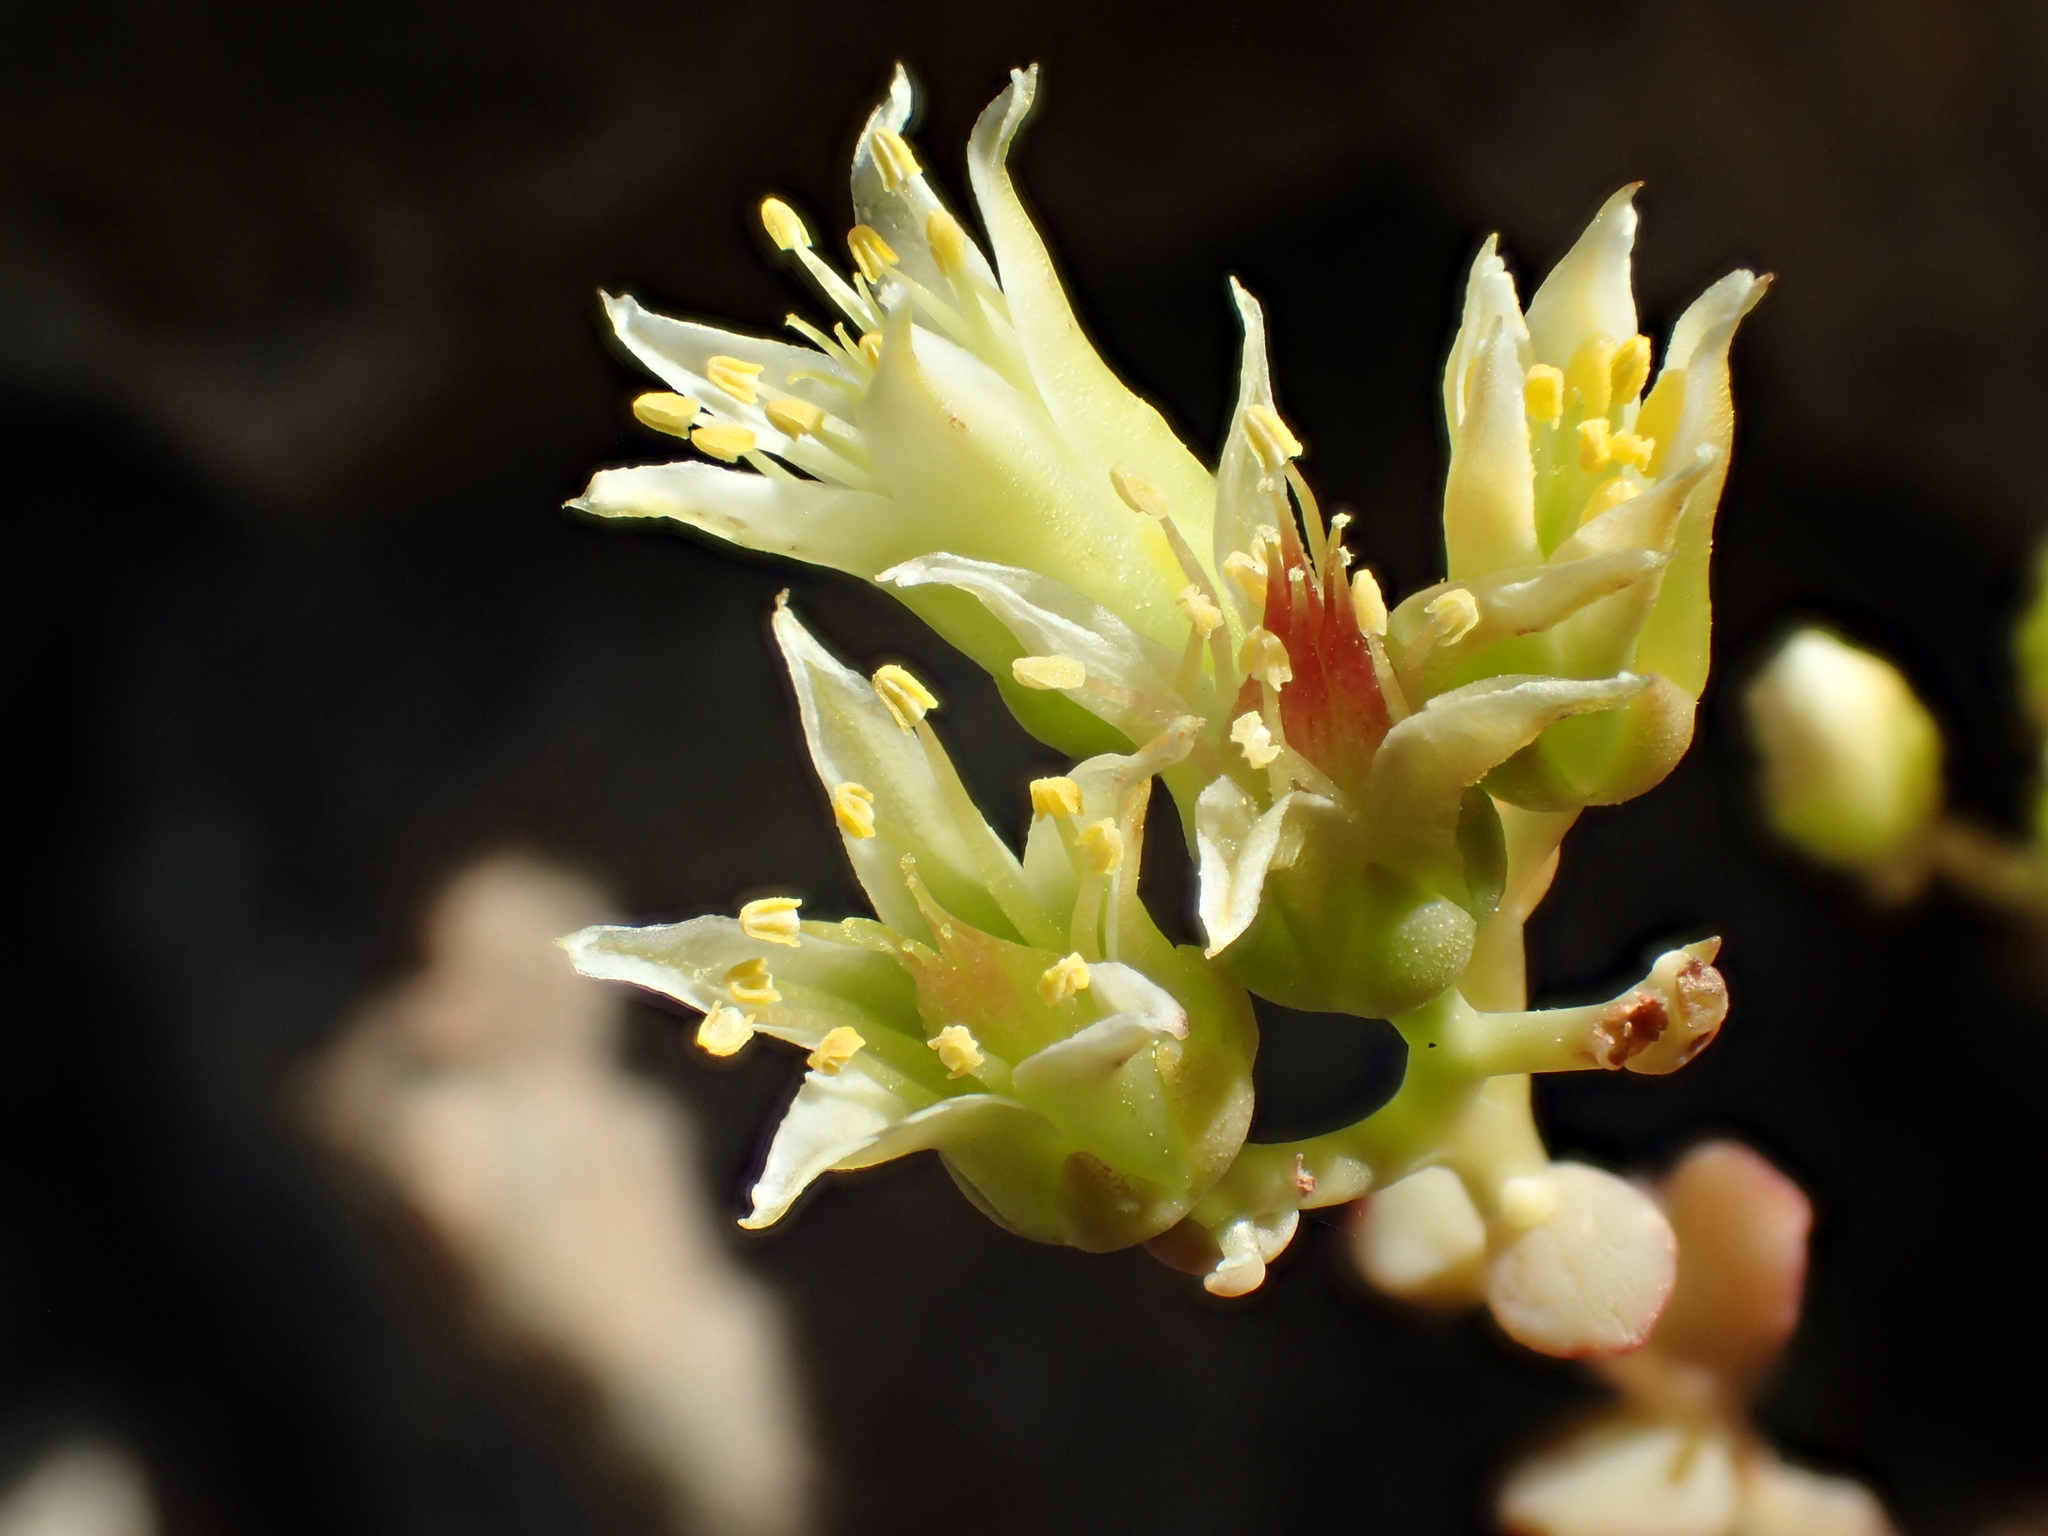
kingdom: Plantae
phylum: Tracheophyta
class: Magnoliopsida
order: Saxifragales
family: Crassulaceae
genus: Sedum
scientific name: Sedum flavidum
